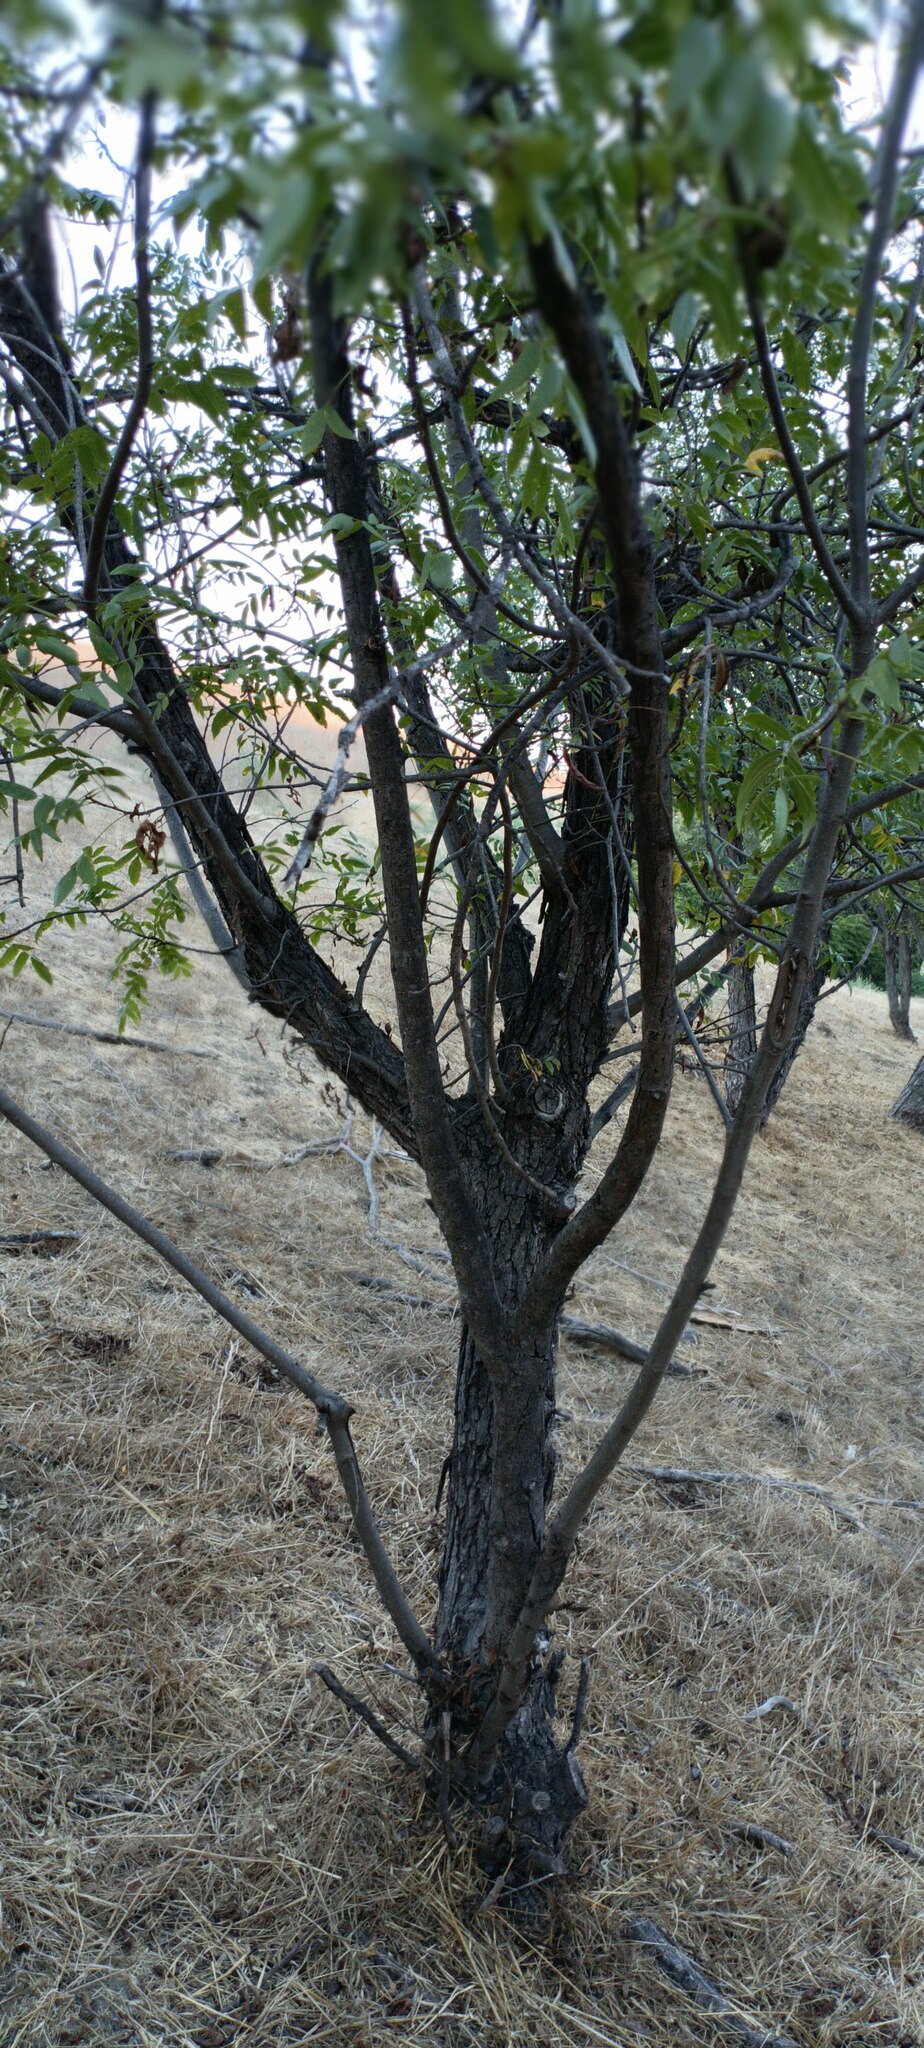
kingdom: Plantae
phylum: Tracheophyta
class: Magnoliopsida
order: Fagales
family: Juglandaceae
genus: Juglans
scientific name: Juglans californica
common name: Southern california black walnut
